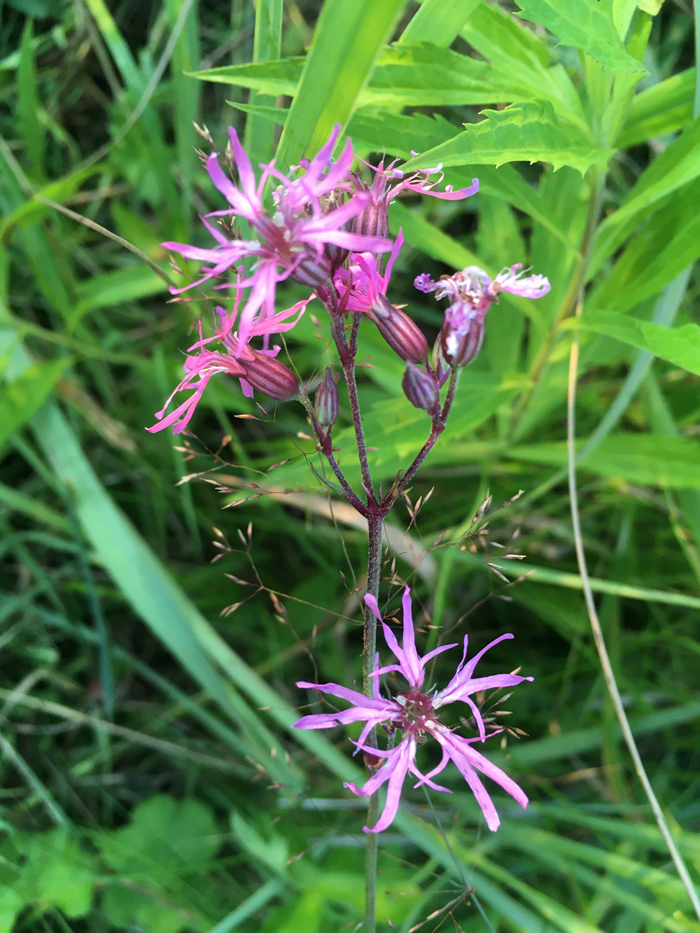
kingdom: Plantae
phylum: Tracheophyta
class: Magnoliopsida
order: Caryophyllales
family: Caryophyllaceae
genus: Silene
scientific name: Silene flos-cuculi
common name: Ragged-robin
